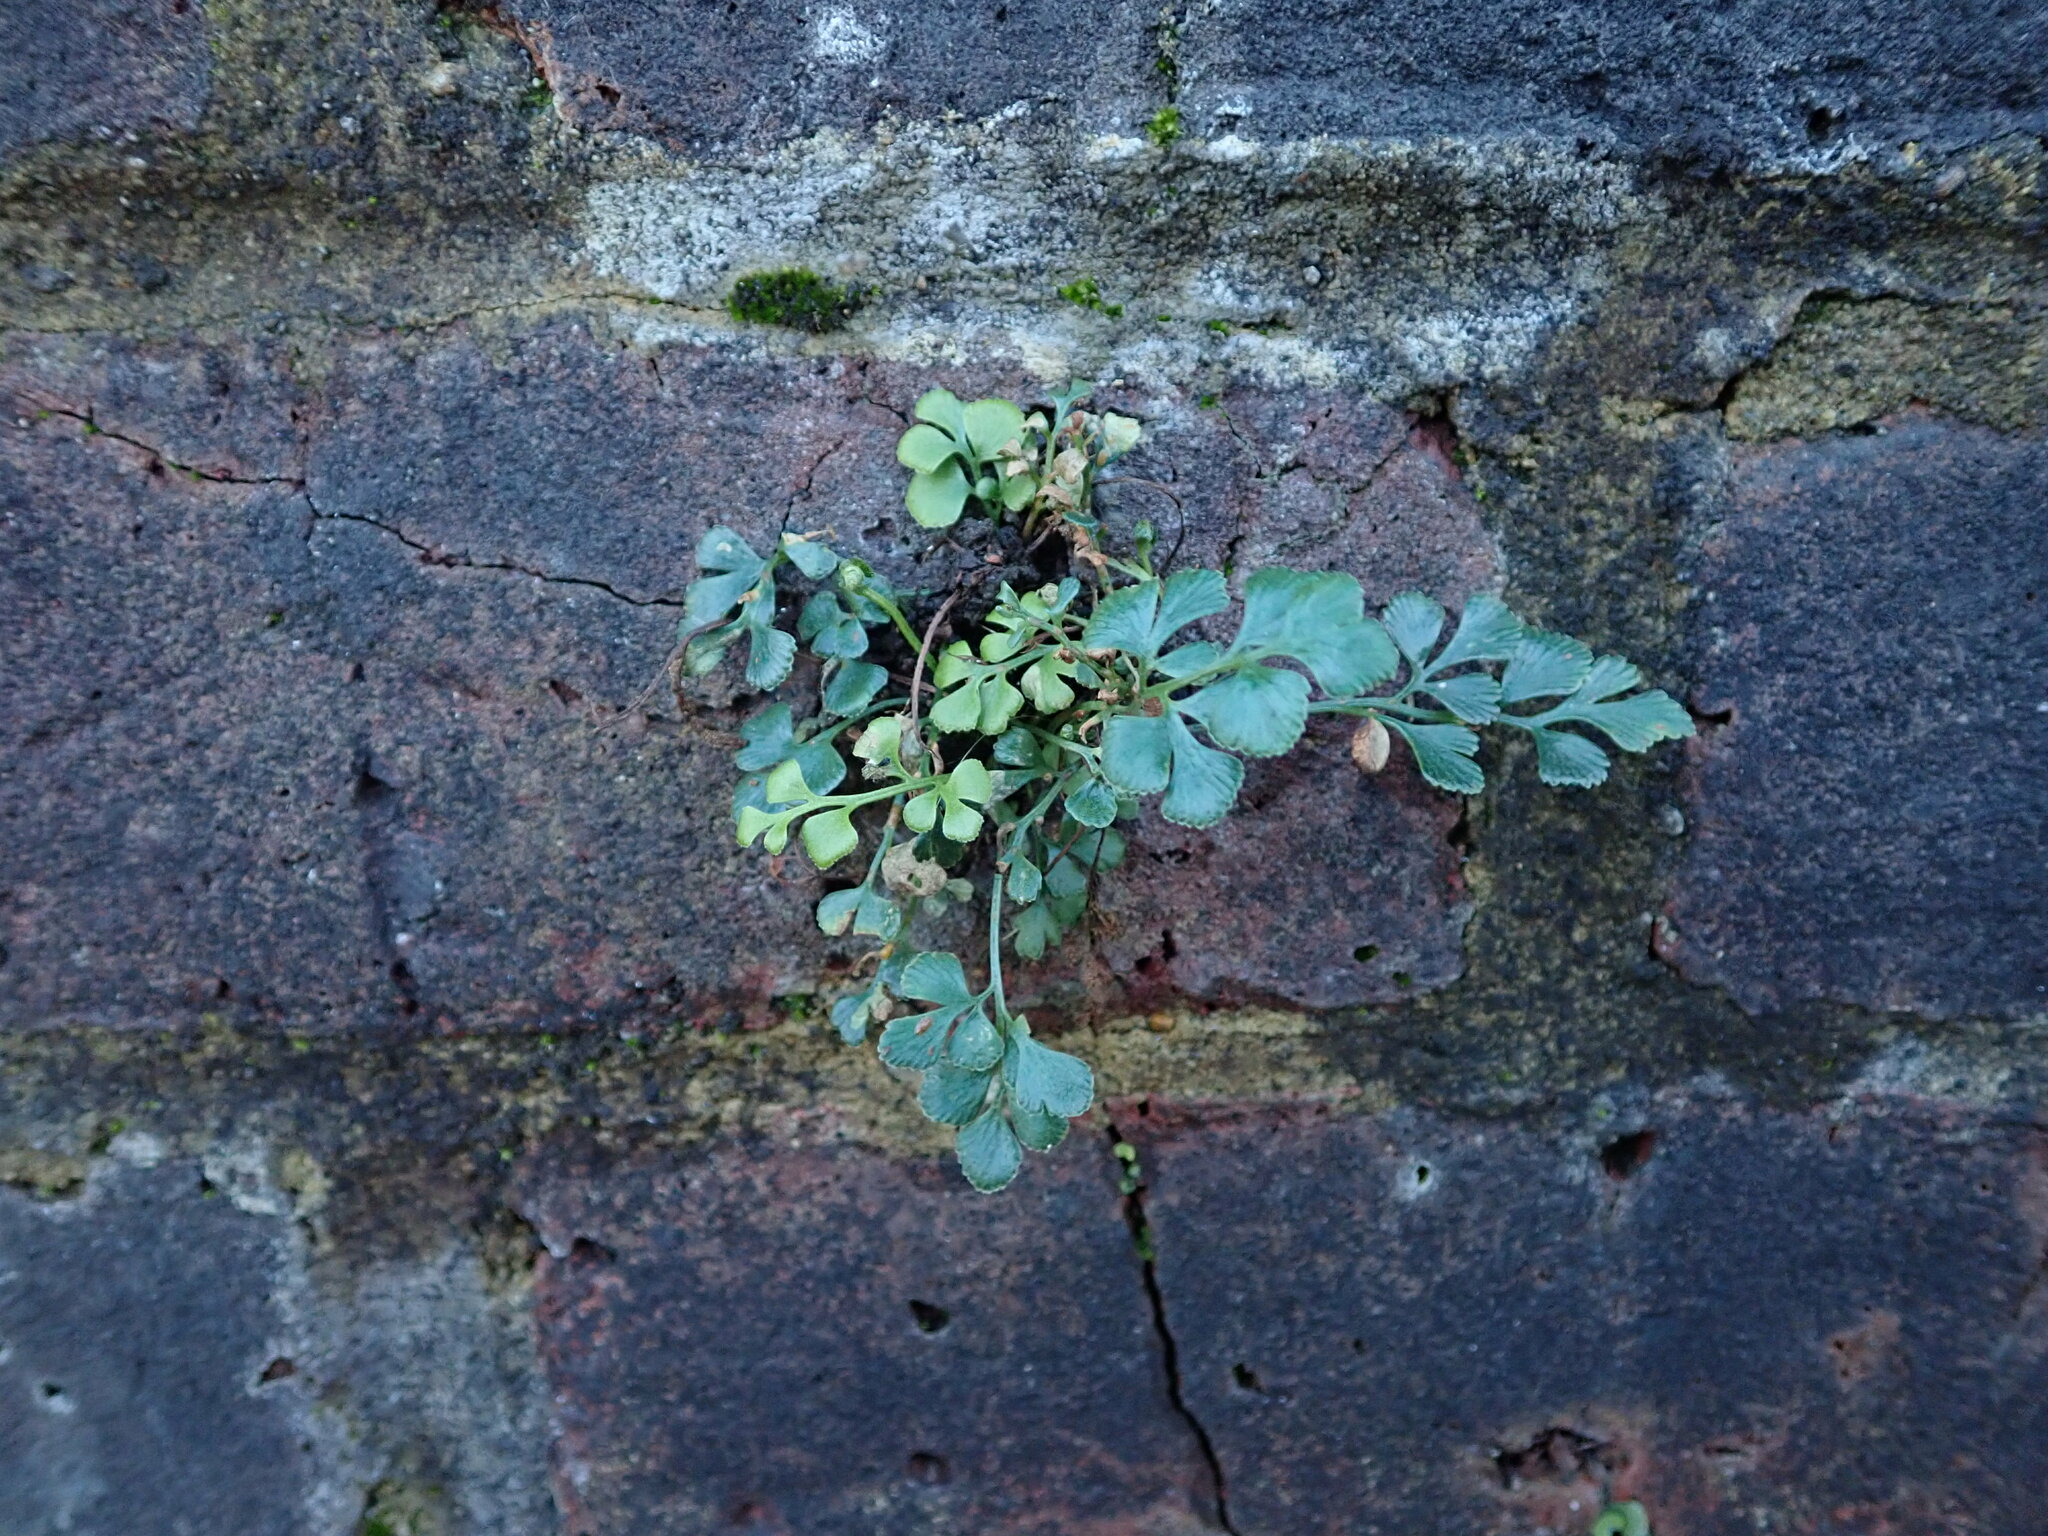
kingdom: Plantae
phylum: Tracheophyta
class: Polypodiopsida
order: Polypodiales
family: Aspleniaceae
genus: Asplenium
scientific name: Asplenium ruta-muraria
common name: Wall-rue
